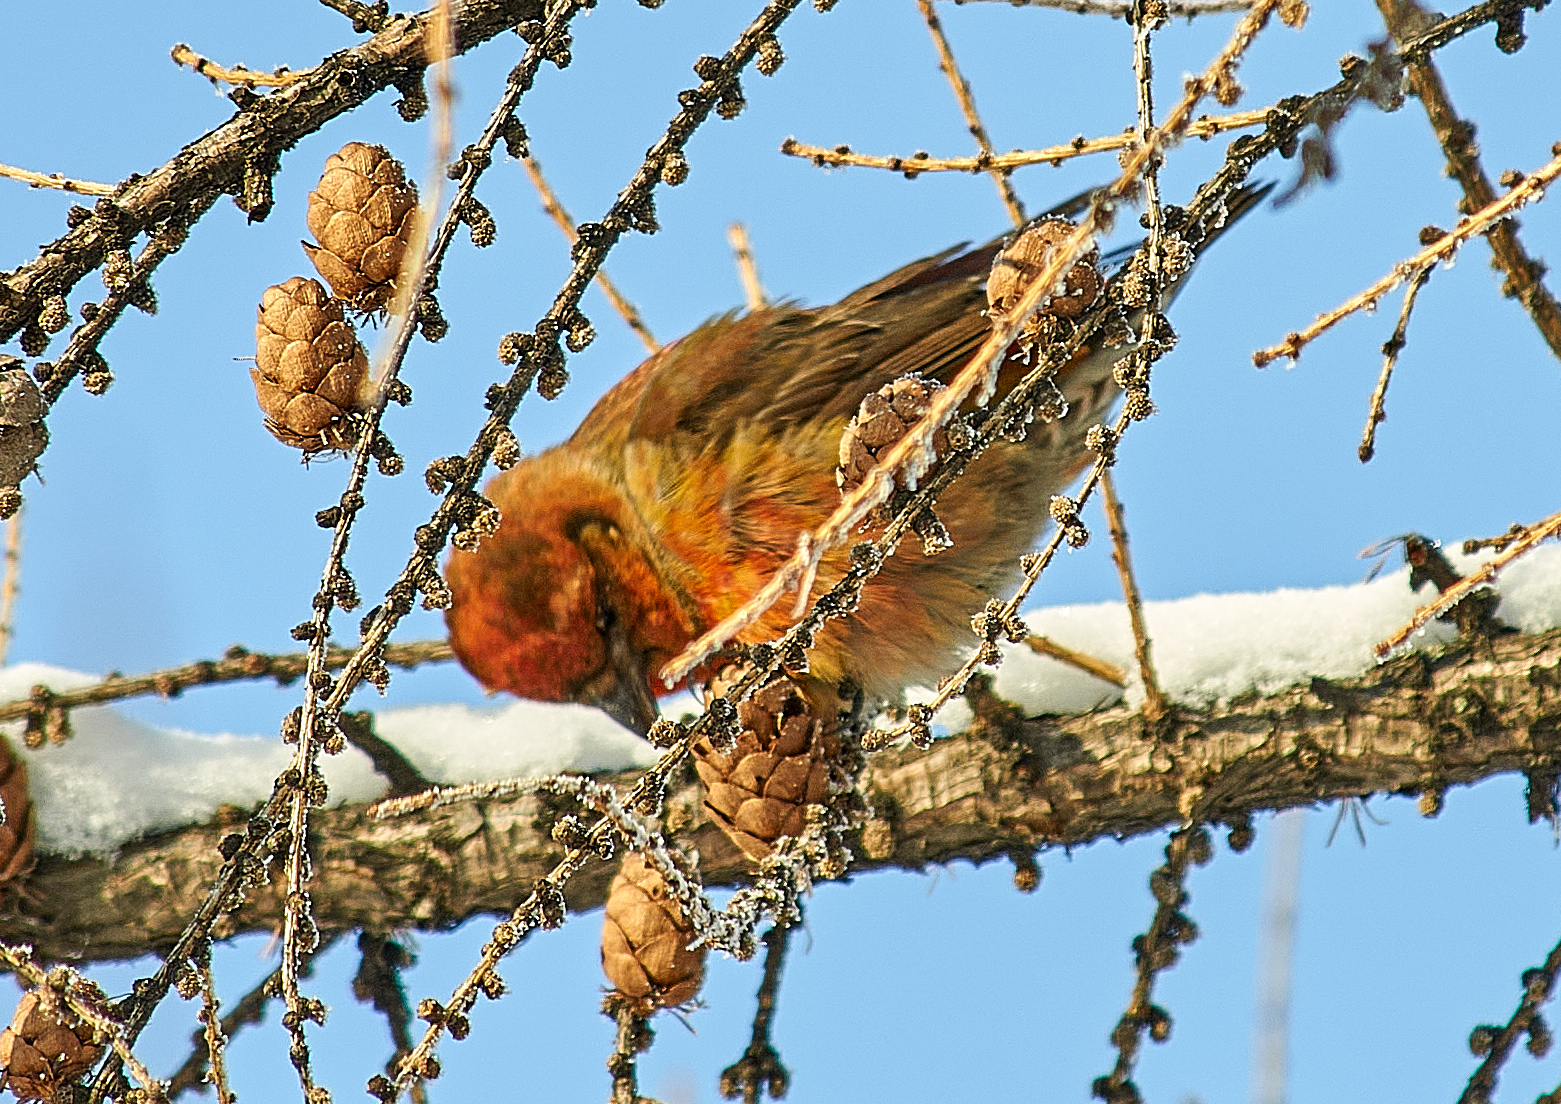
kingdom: Animalia
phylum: Chordata
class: Aves
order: Passeriformes
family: Fringillidae
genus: Loxia
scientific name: Loxia curvirostra
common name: Red crossbill
